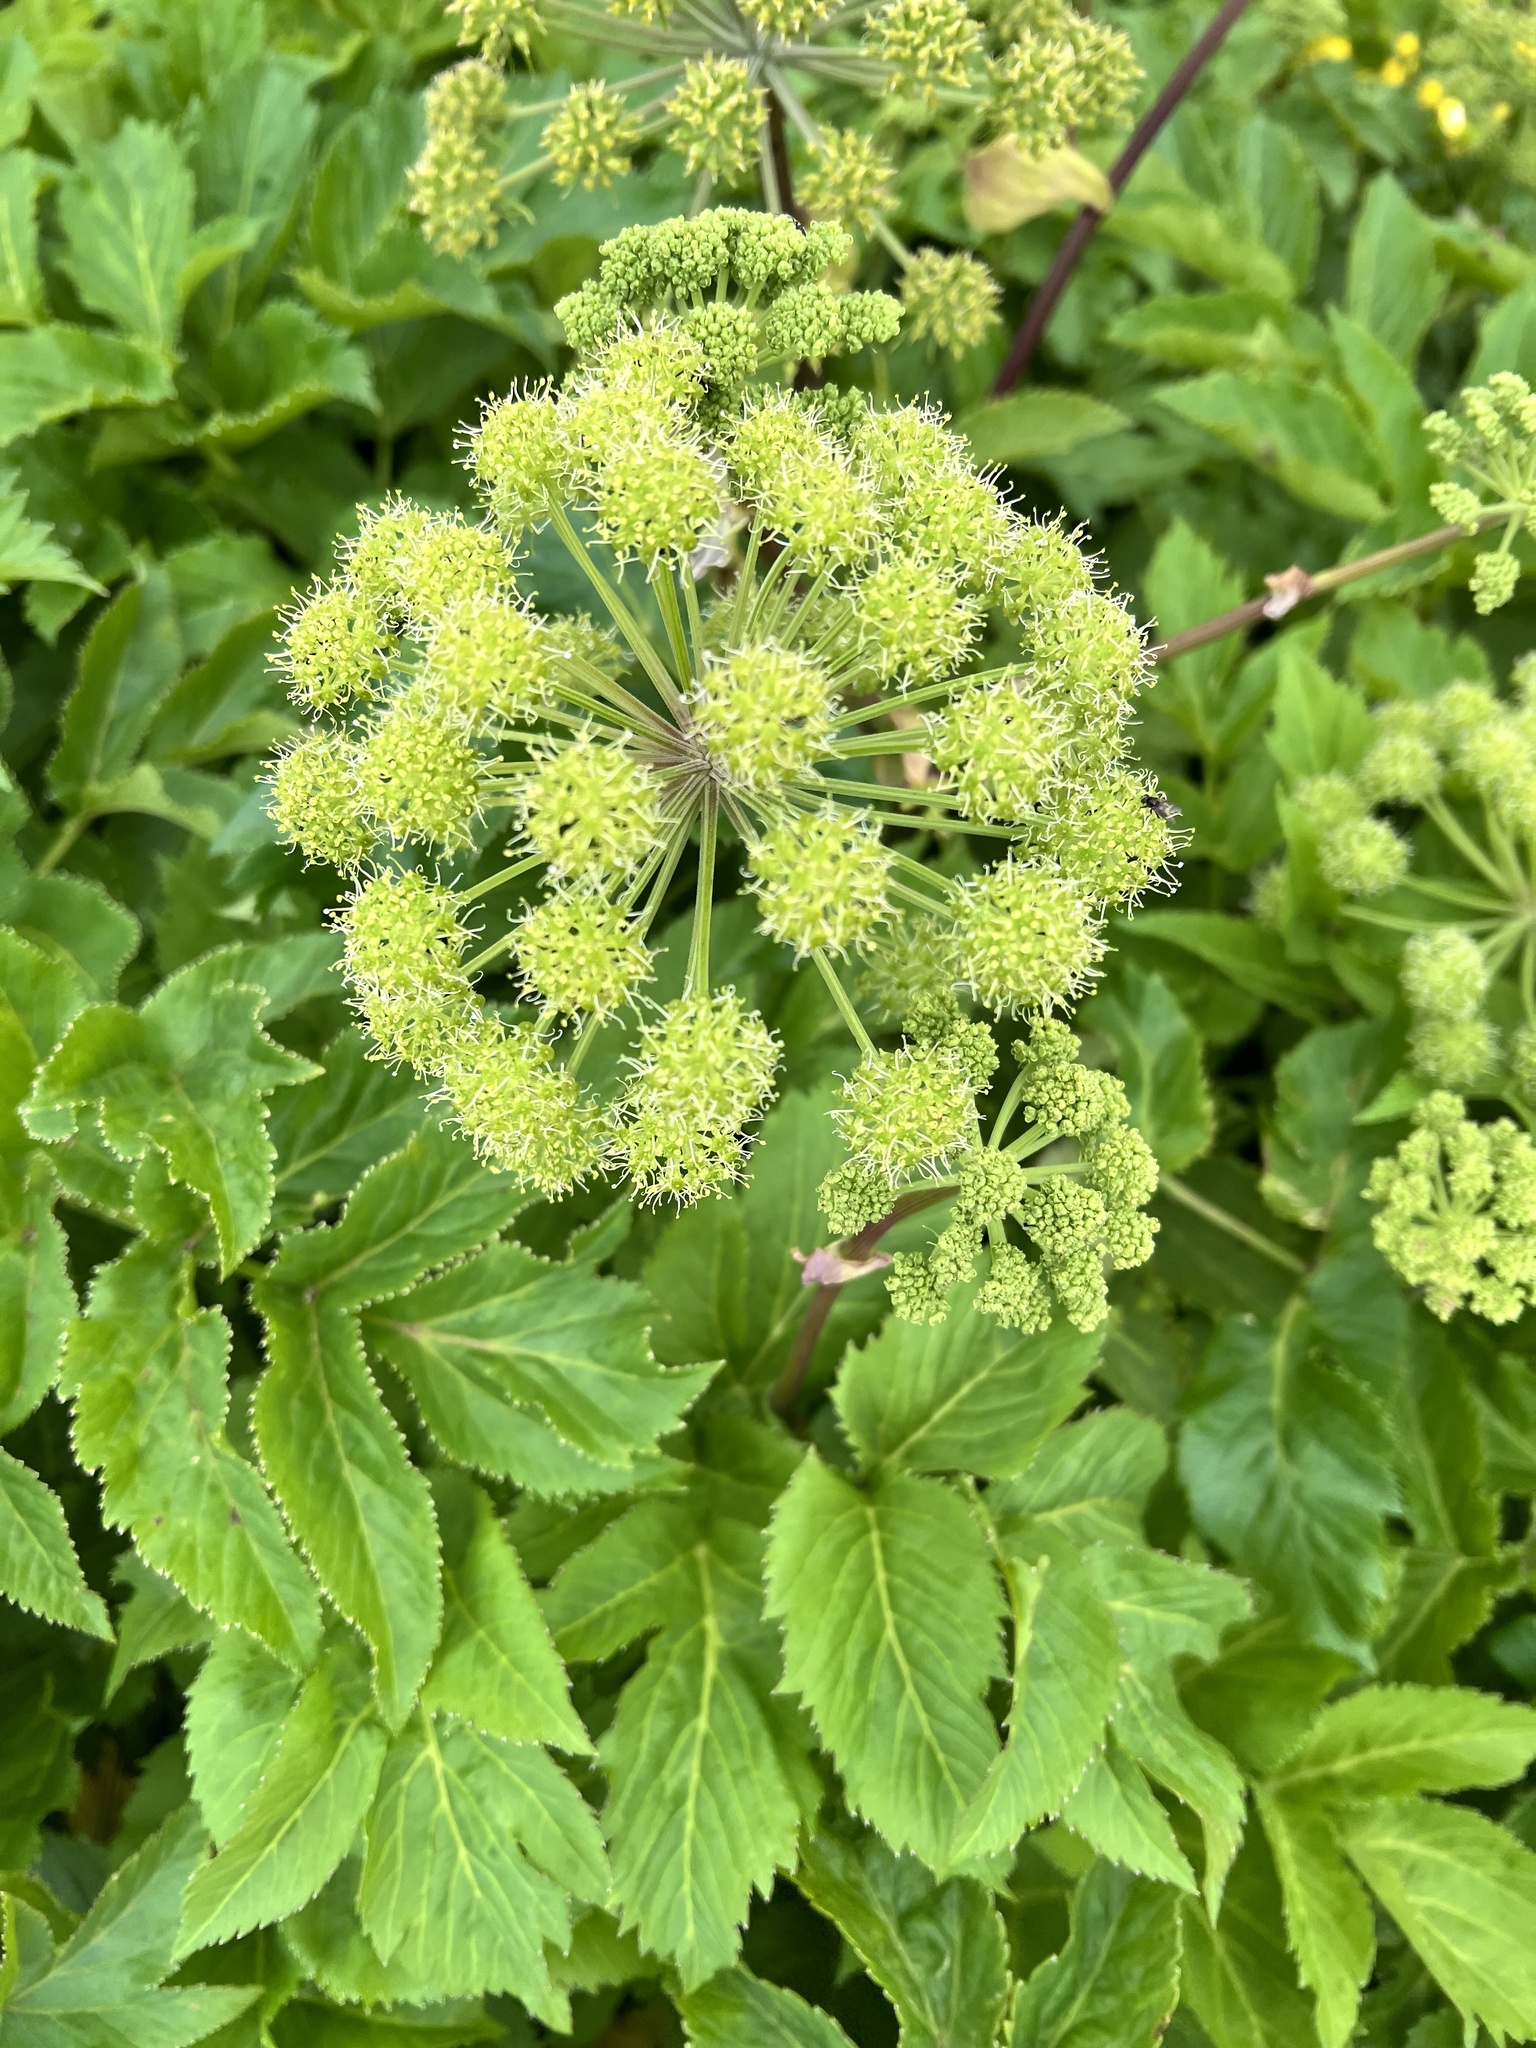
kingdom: Plantae
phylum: Tracheophyta
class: Magnoliopsida
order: Apiales
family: Apiaceae
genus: Angelica
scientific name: Angelica archangelica
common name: Garden angelica
